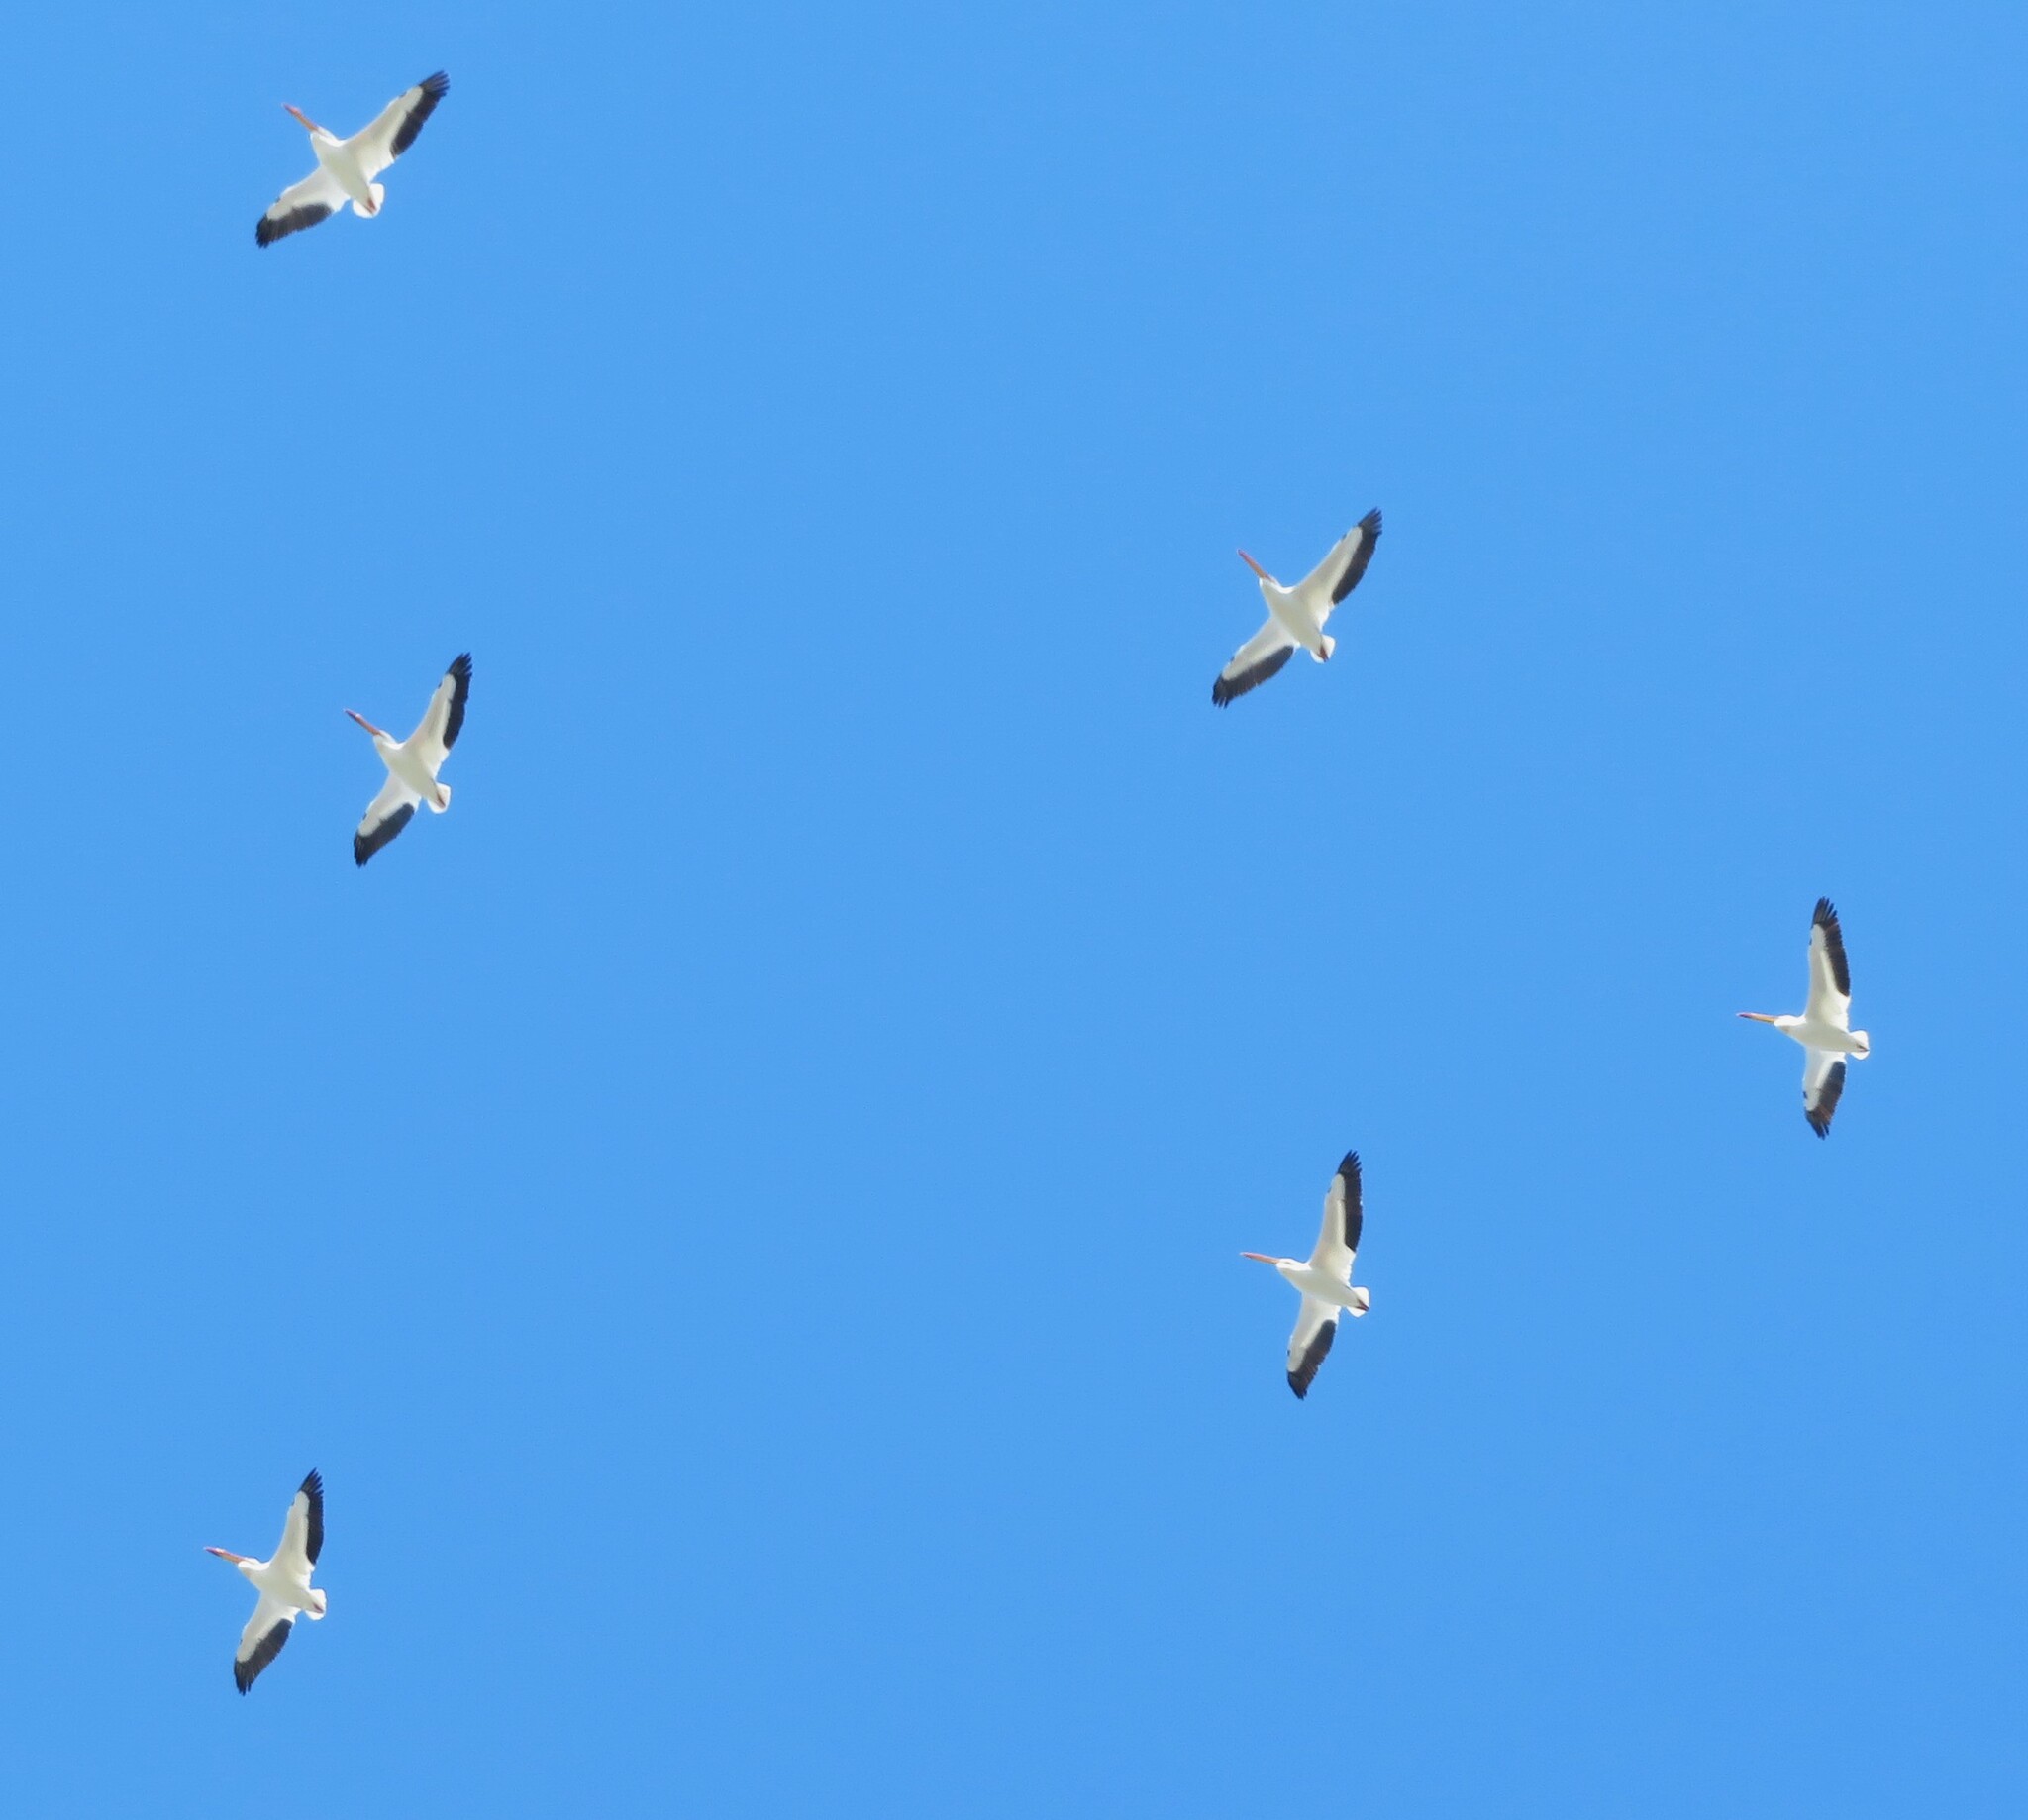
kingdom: Animalia
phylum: Chordata
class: Aves
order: Pelecaniformes
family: Pelecanidae
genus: Pelecanus
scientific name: Pelecanus erythrorhynchos
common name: American white pelican
